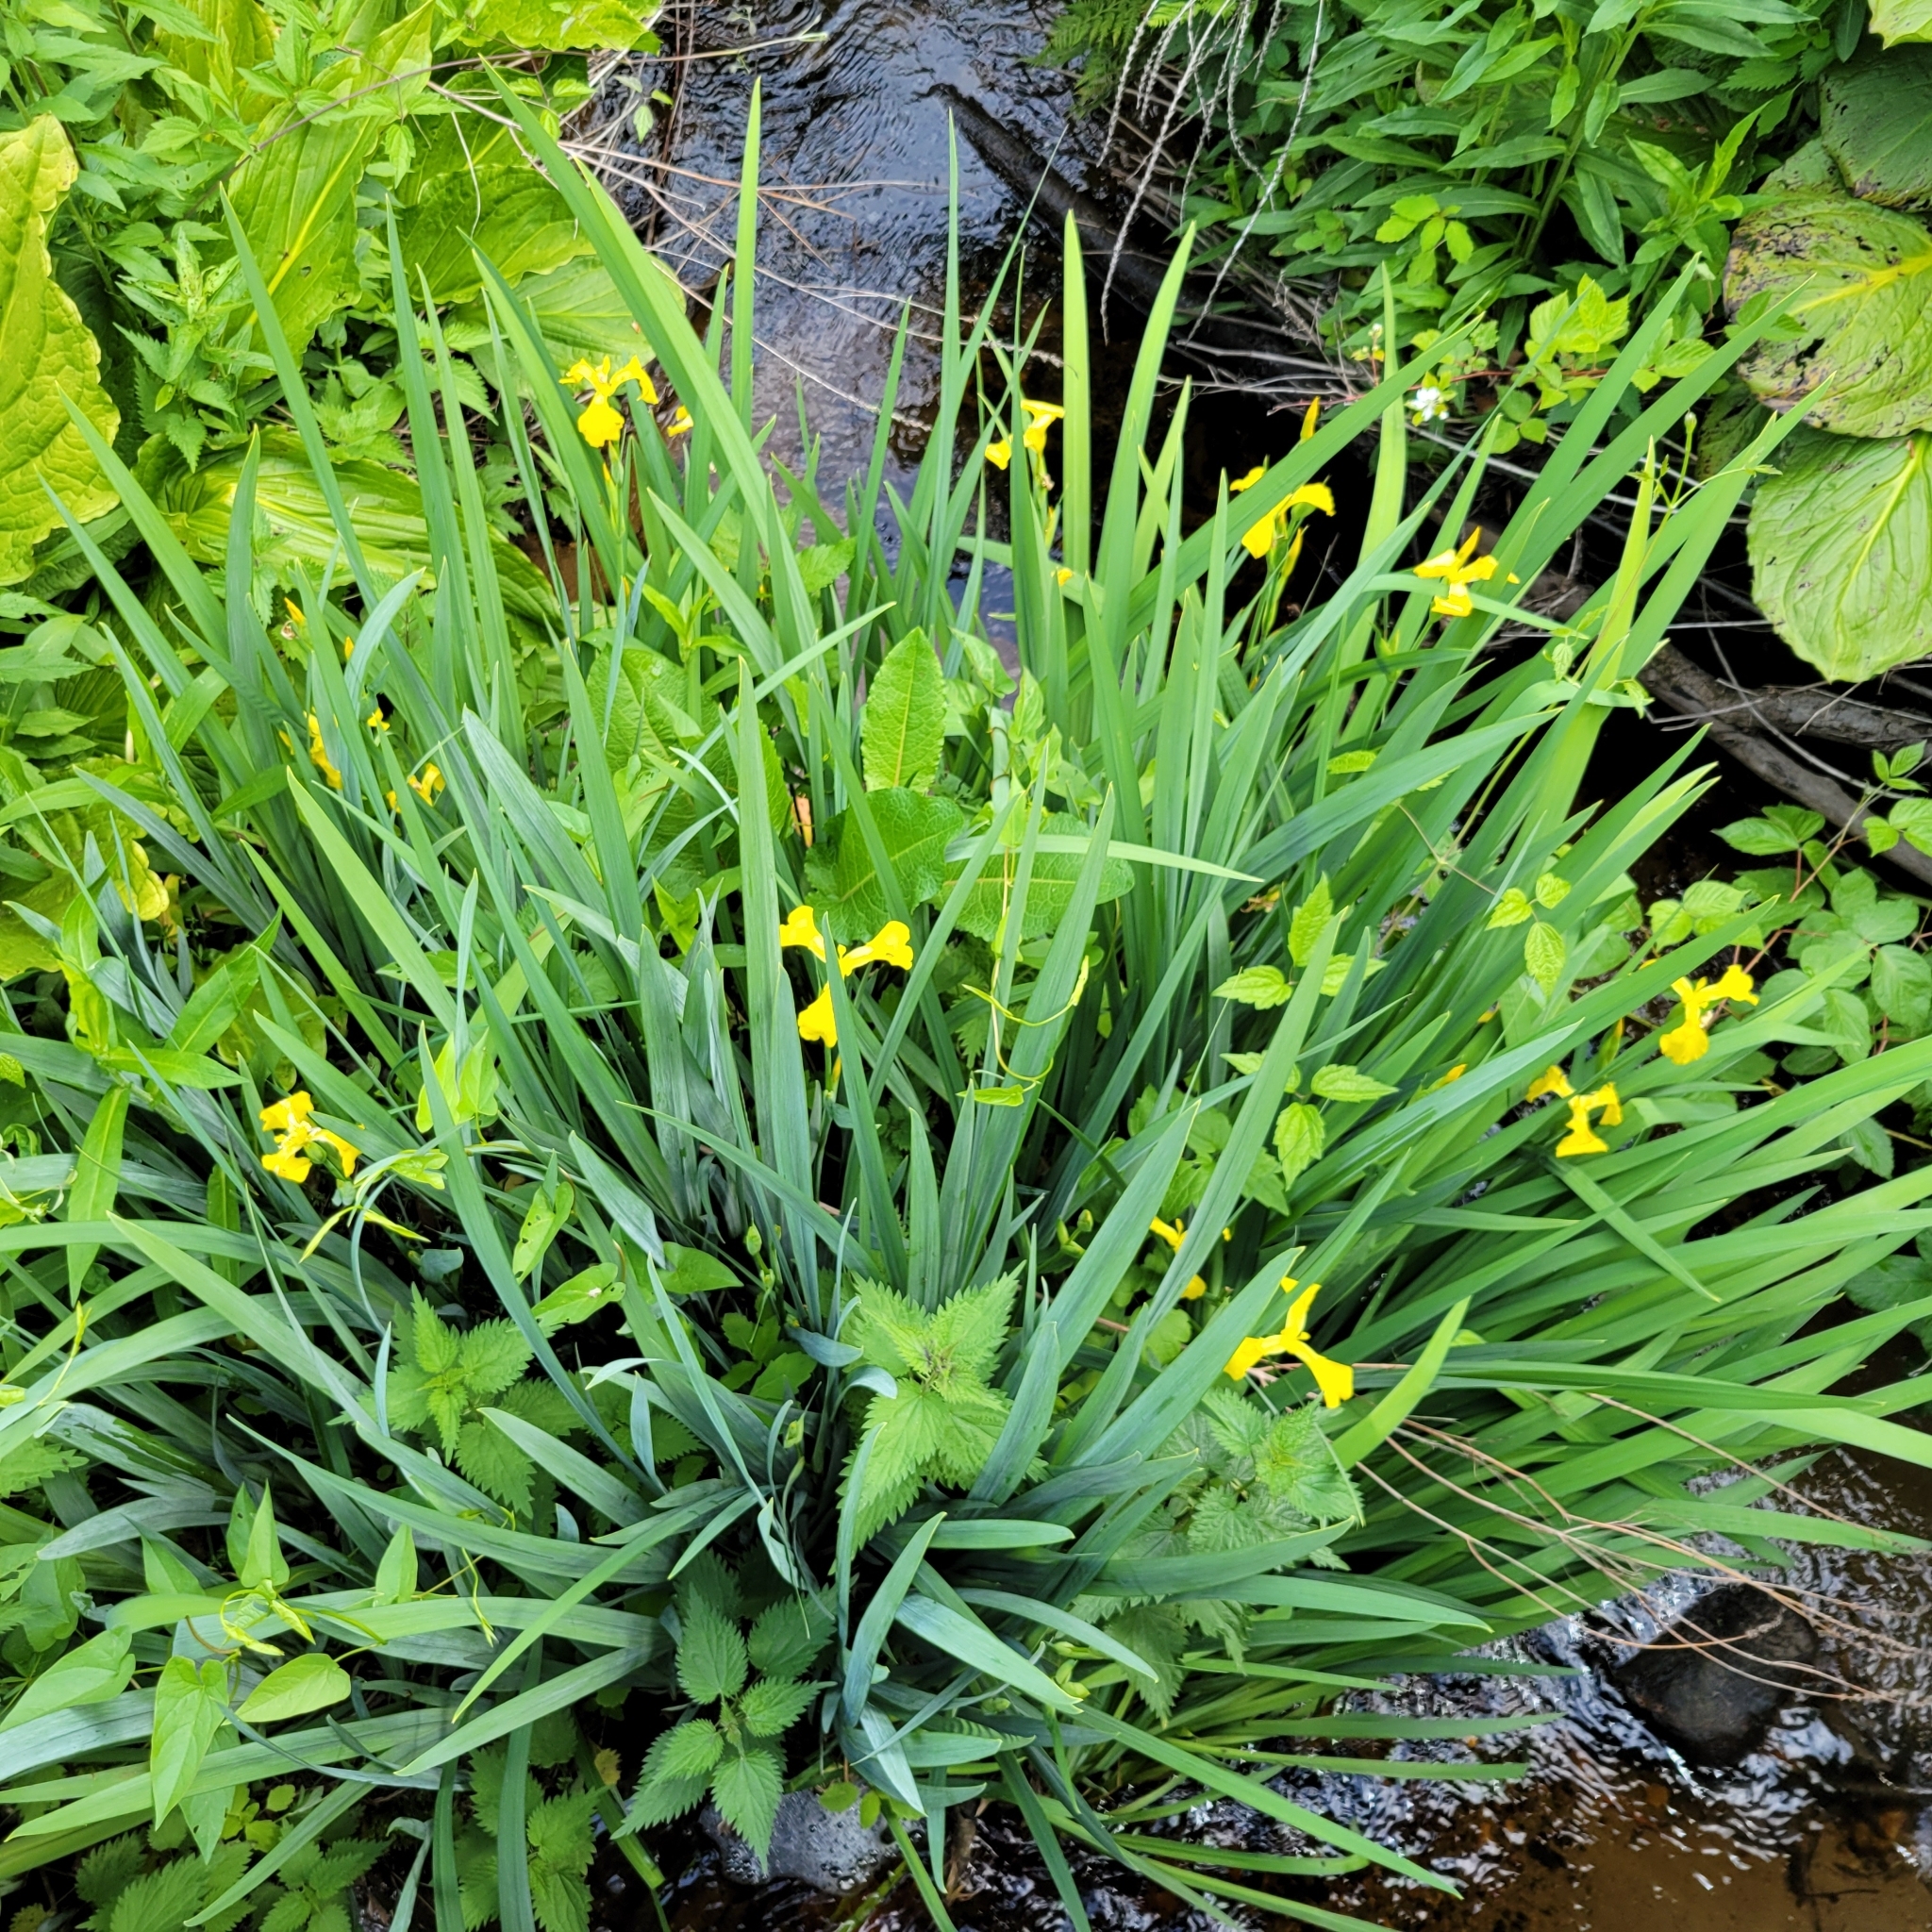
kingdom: Plantae
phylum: Tracheophyta
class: Liliopsida
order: Asparagales
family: Iridaceae
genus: Iris
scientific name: Iris pseudacorus
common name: Yellow flag
